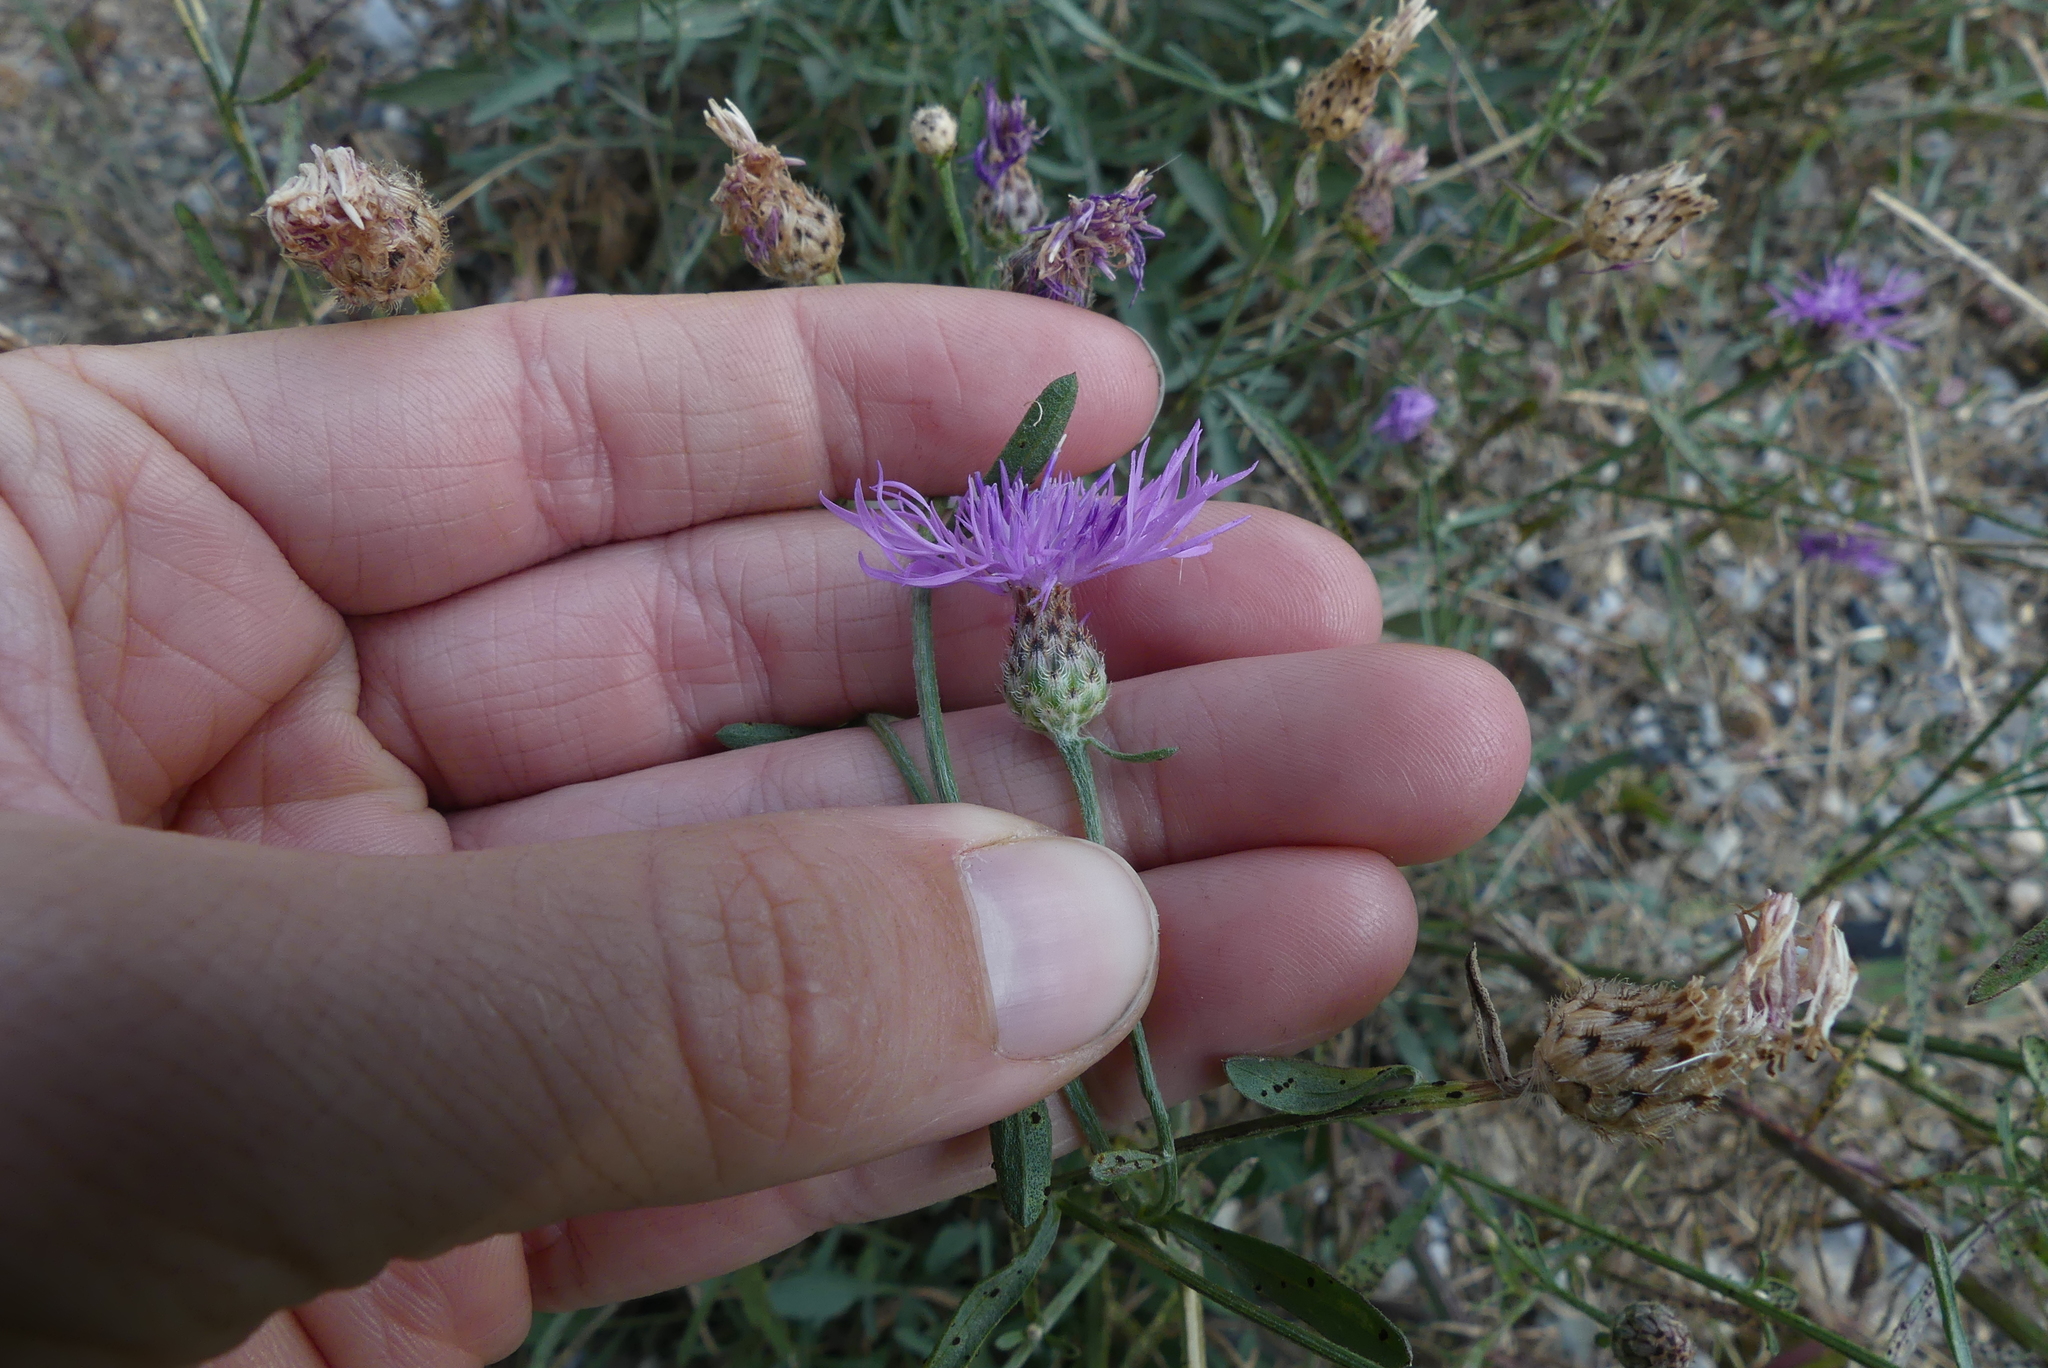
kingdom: Plantae
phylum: Tracheophyta
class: Magnoliopsida
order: Asterales
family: Asteraceae
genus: Centaurea
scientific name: Centaurea stoebe
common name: Spotted knapweed
